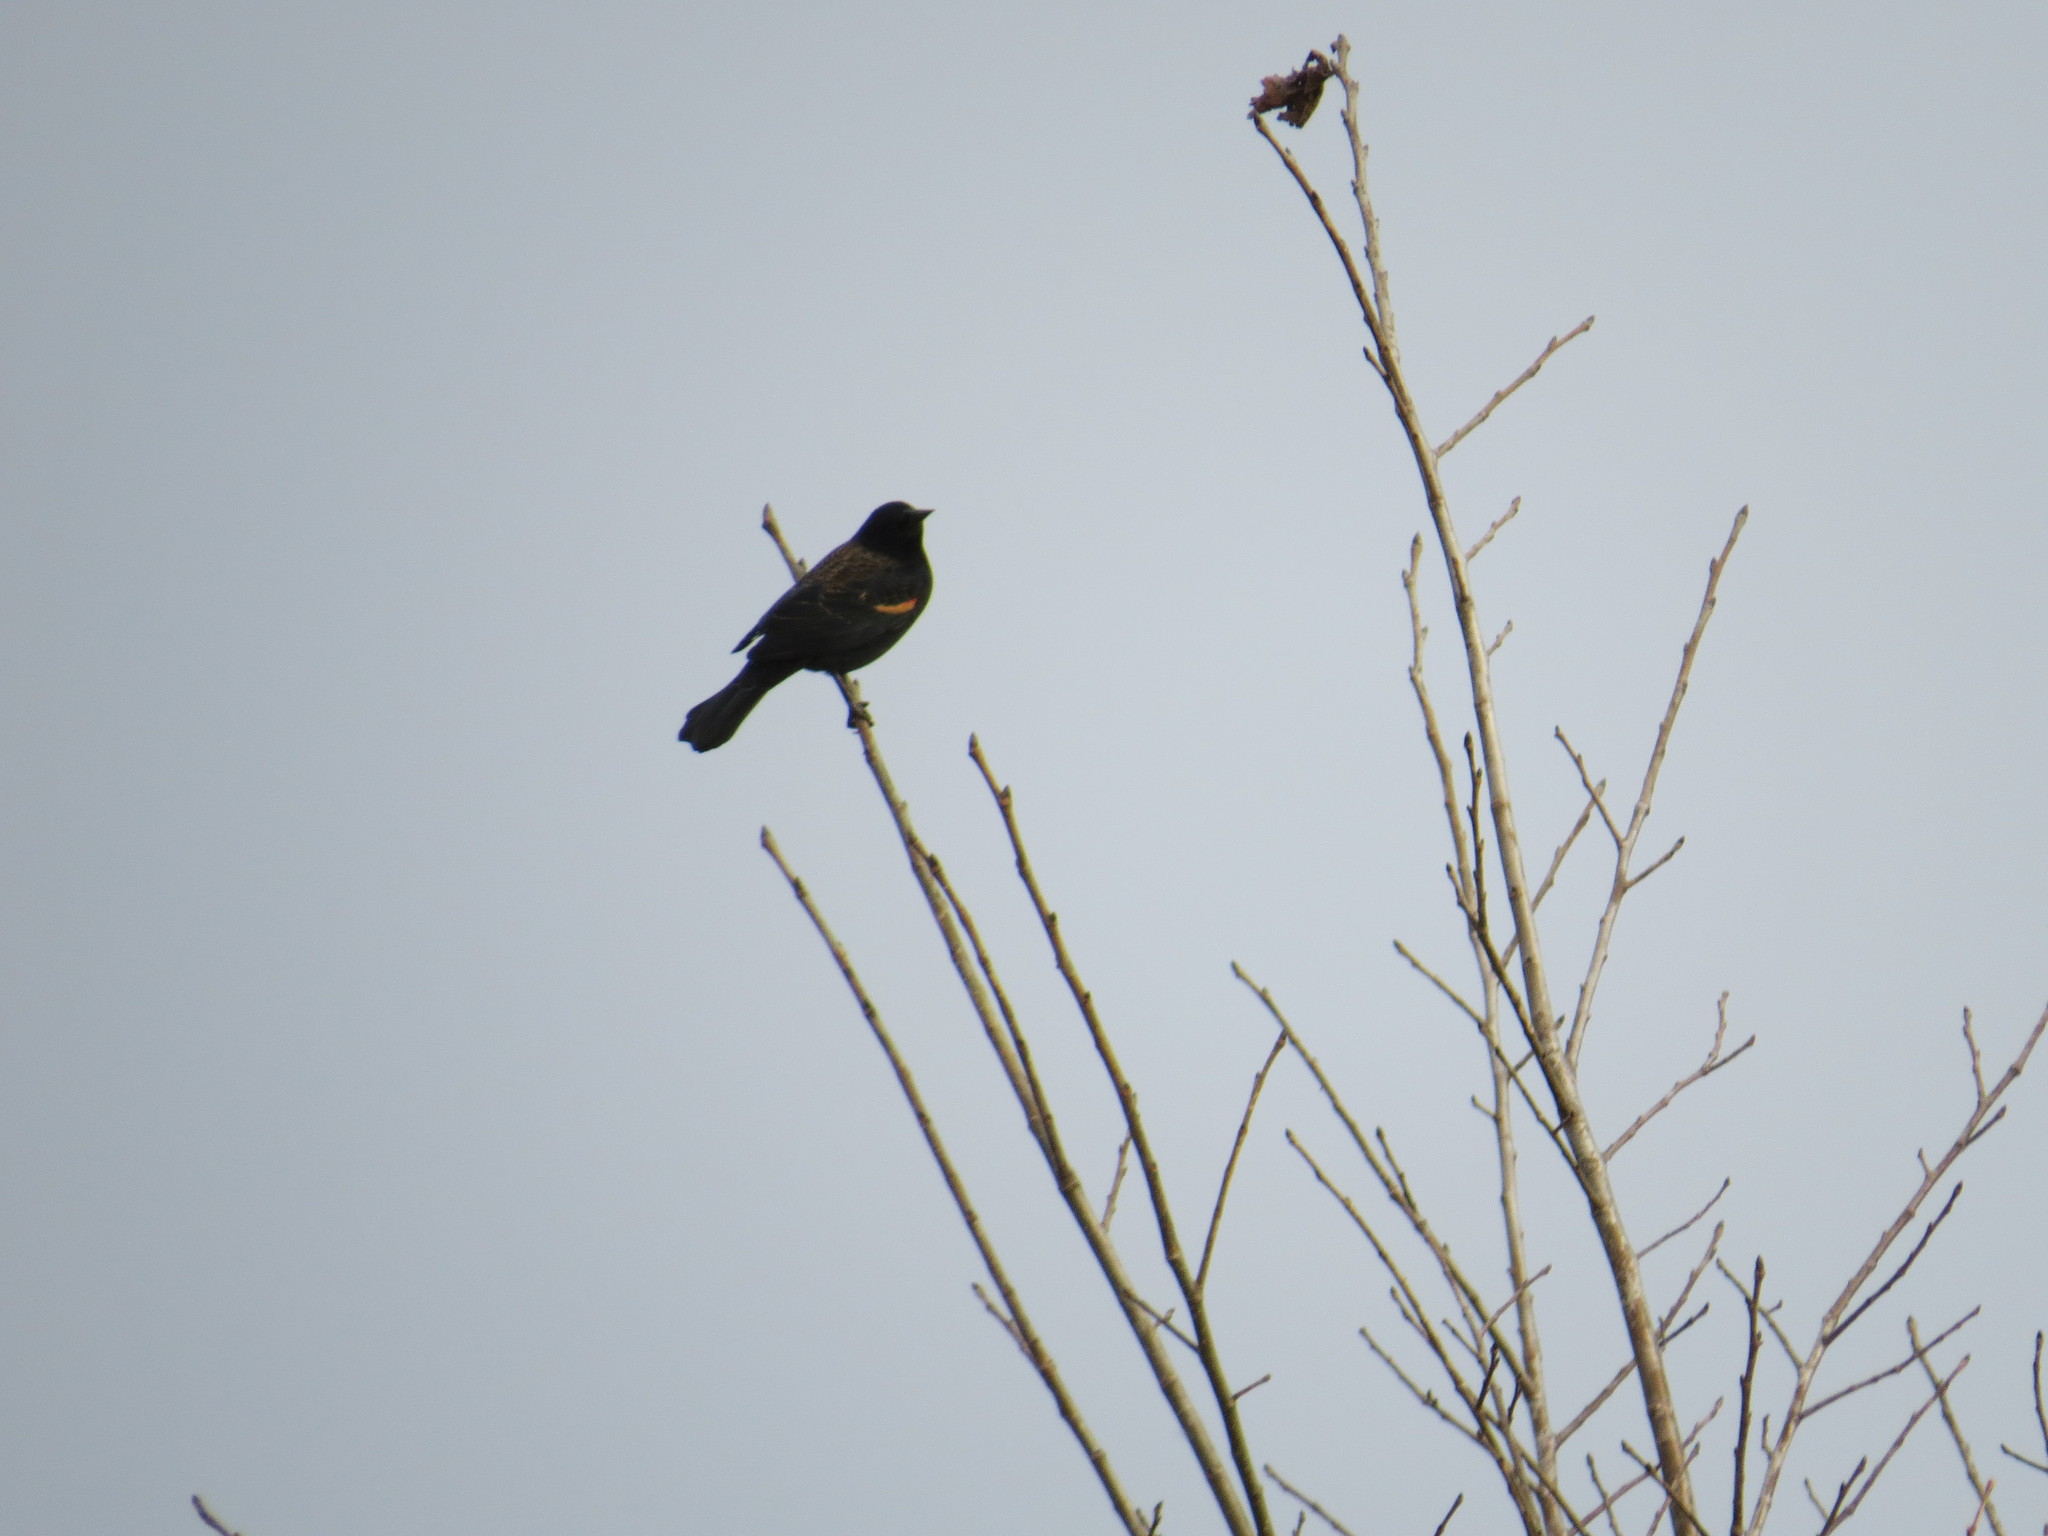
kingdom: Animalia
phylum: Chordata
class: Aves
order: Passeriformes
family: Icteridae
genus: Agelaius
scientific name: Agelaius phoeniceus
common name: Red-winged blackbird
